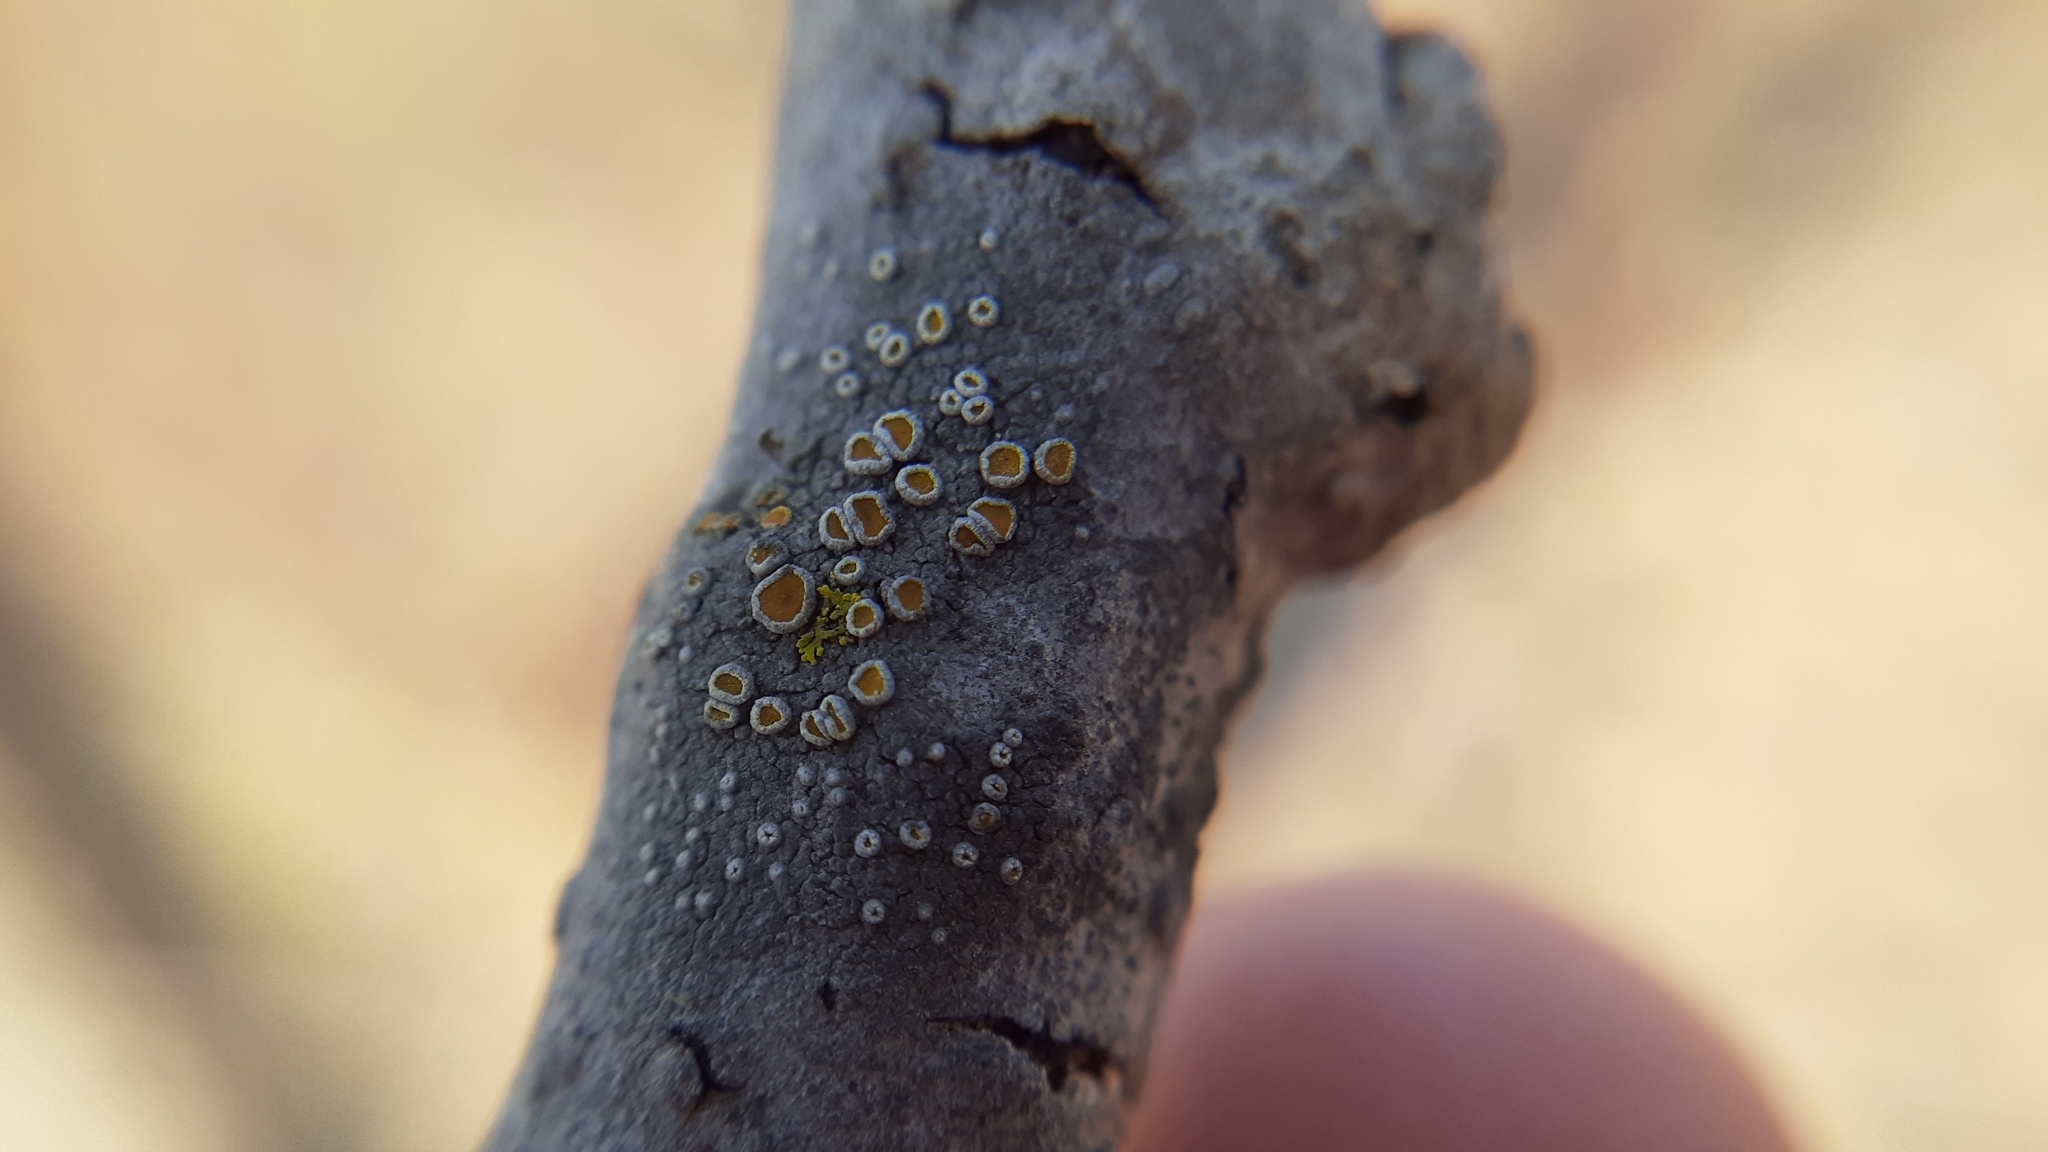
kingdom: Fungi
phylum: Ascomycota
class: Lecanoromycetes
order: Teloschistales
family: Teloschistaceae
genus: Caloplaca
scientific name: Caloplaca cerina
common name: Gray-rimmed firedot lichen
